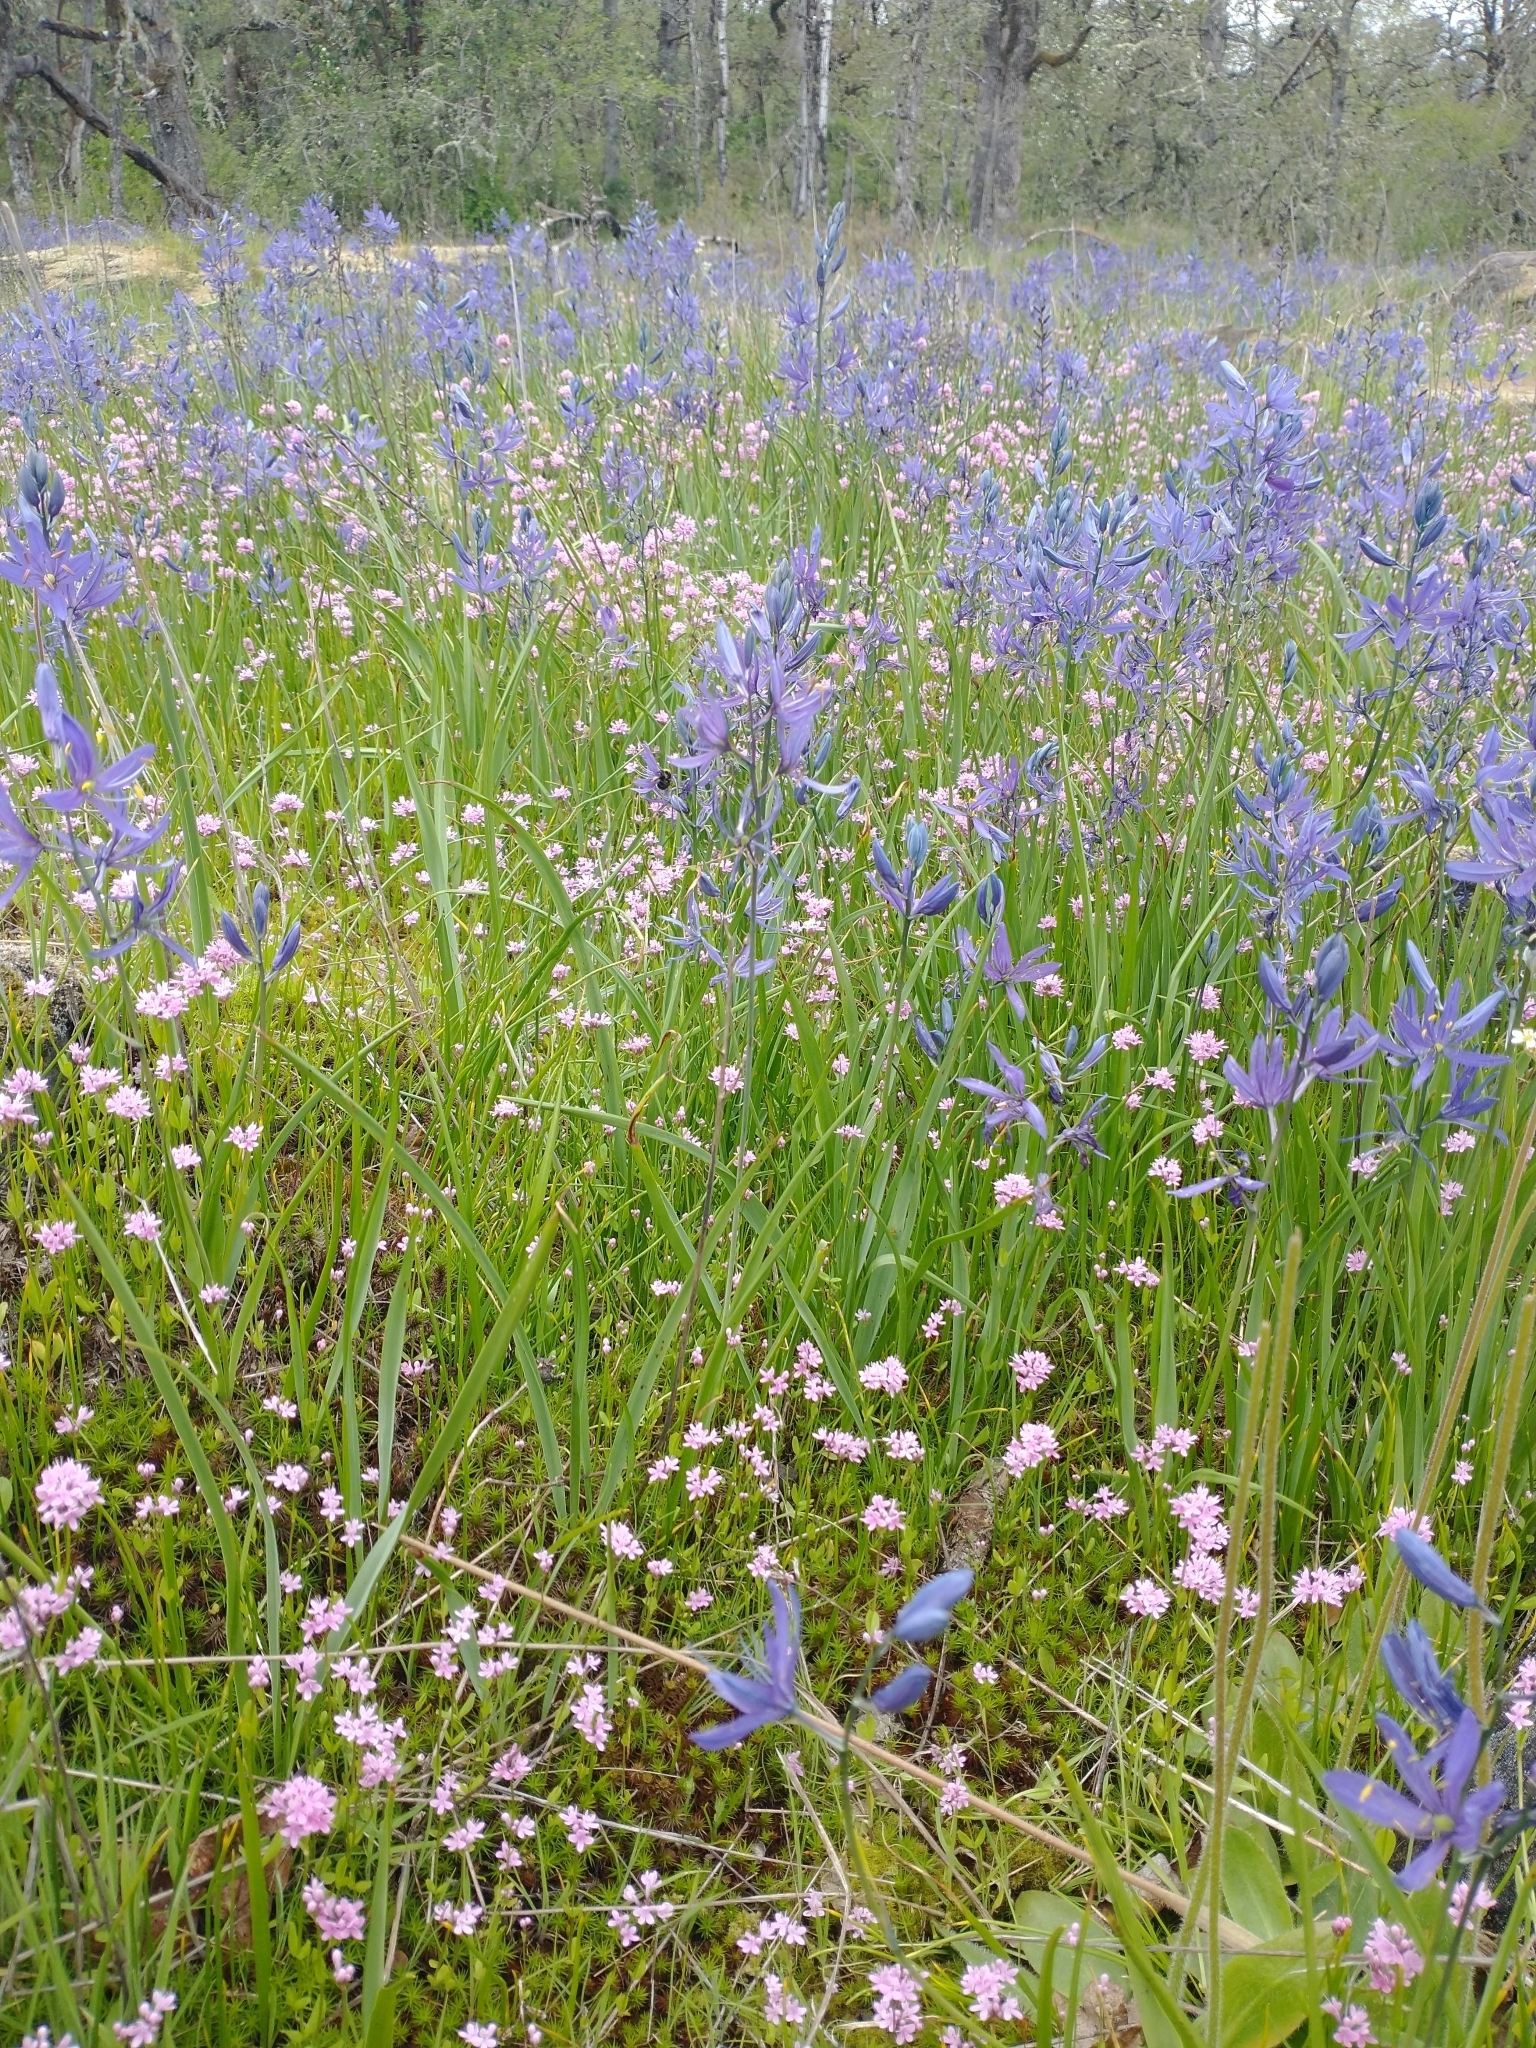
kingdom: Plantae
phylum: Tracheophyta
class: Magnoliopsida
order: Dipsacales
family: Caprifoliaceae
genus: Plectritis
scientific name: Plectritis congesta
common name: Pink plectritis
